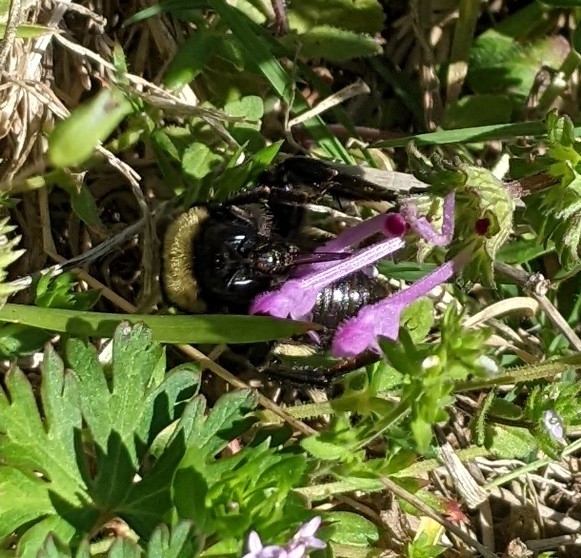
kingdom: Animalia
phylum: Arthropoda
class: Insecta
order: Hymenoptera
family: Apidae
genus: Bombus
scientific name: Bombus pensylvanicus
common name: Bumble bee
